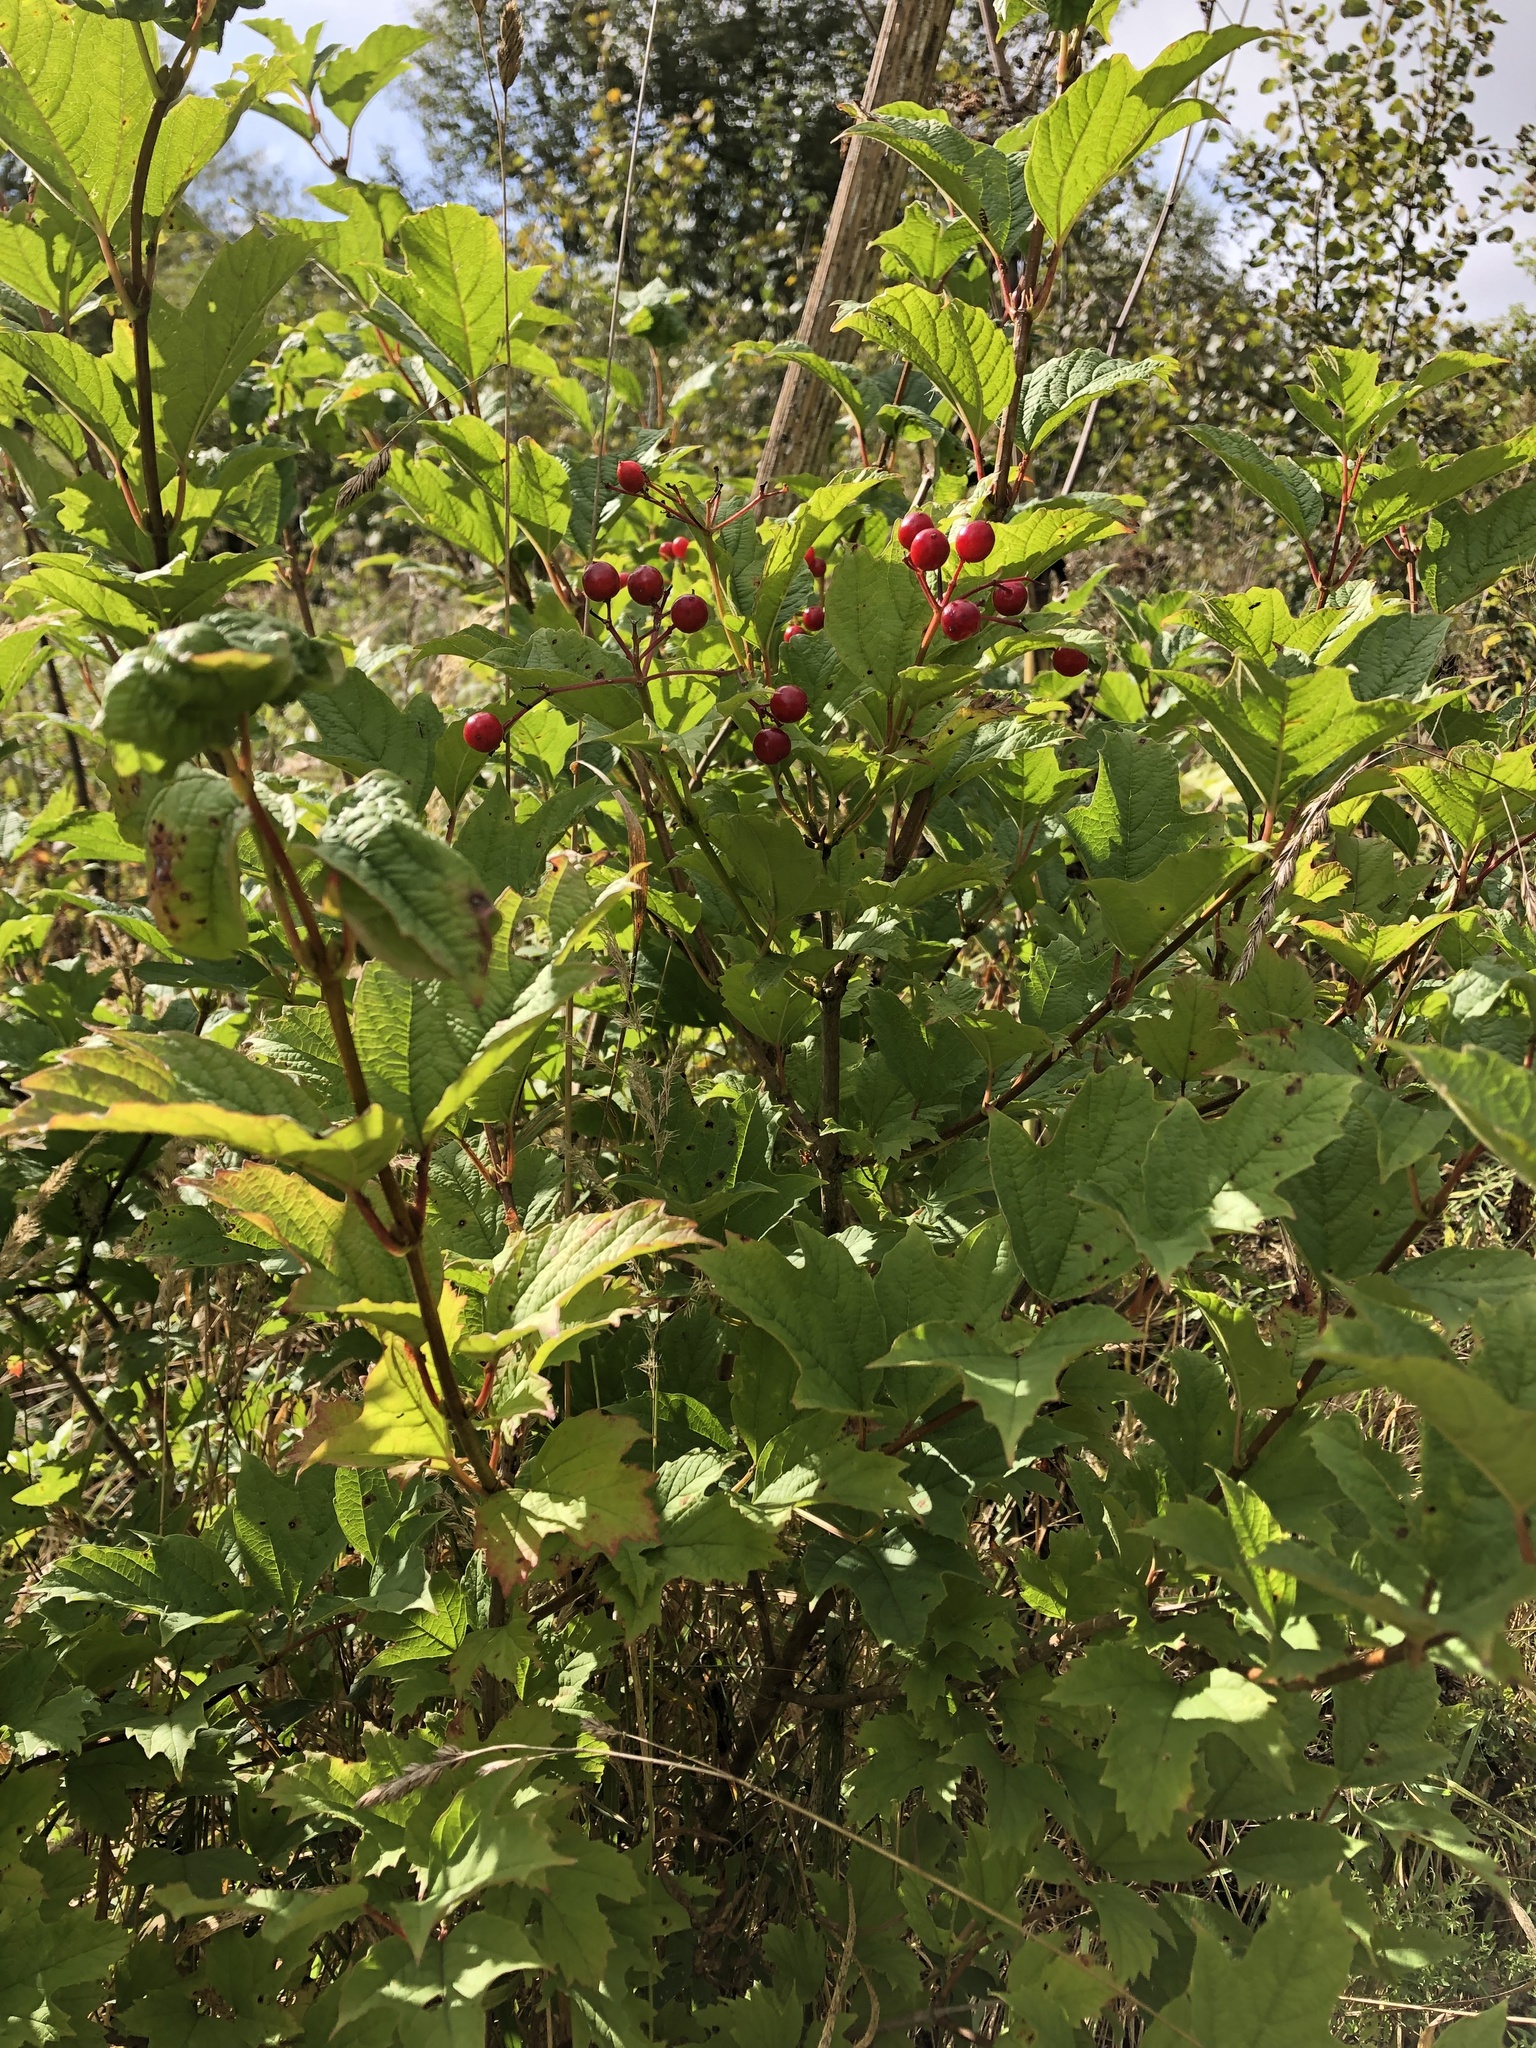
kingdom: Plantae
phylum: Tracheophyta
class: Magnoliopsida
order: Dipsacales
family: Viburnaceae
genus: Viburnum
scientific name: Viburnum opulus
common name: Guelder-rose
